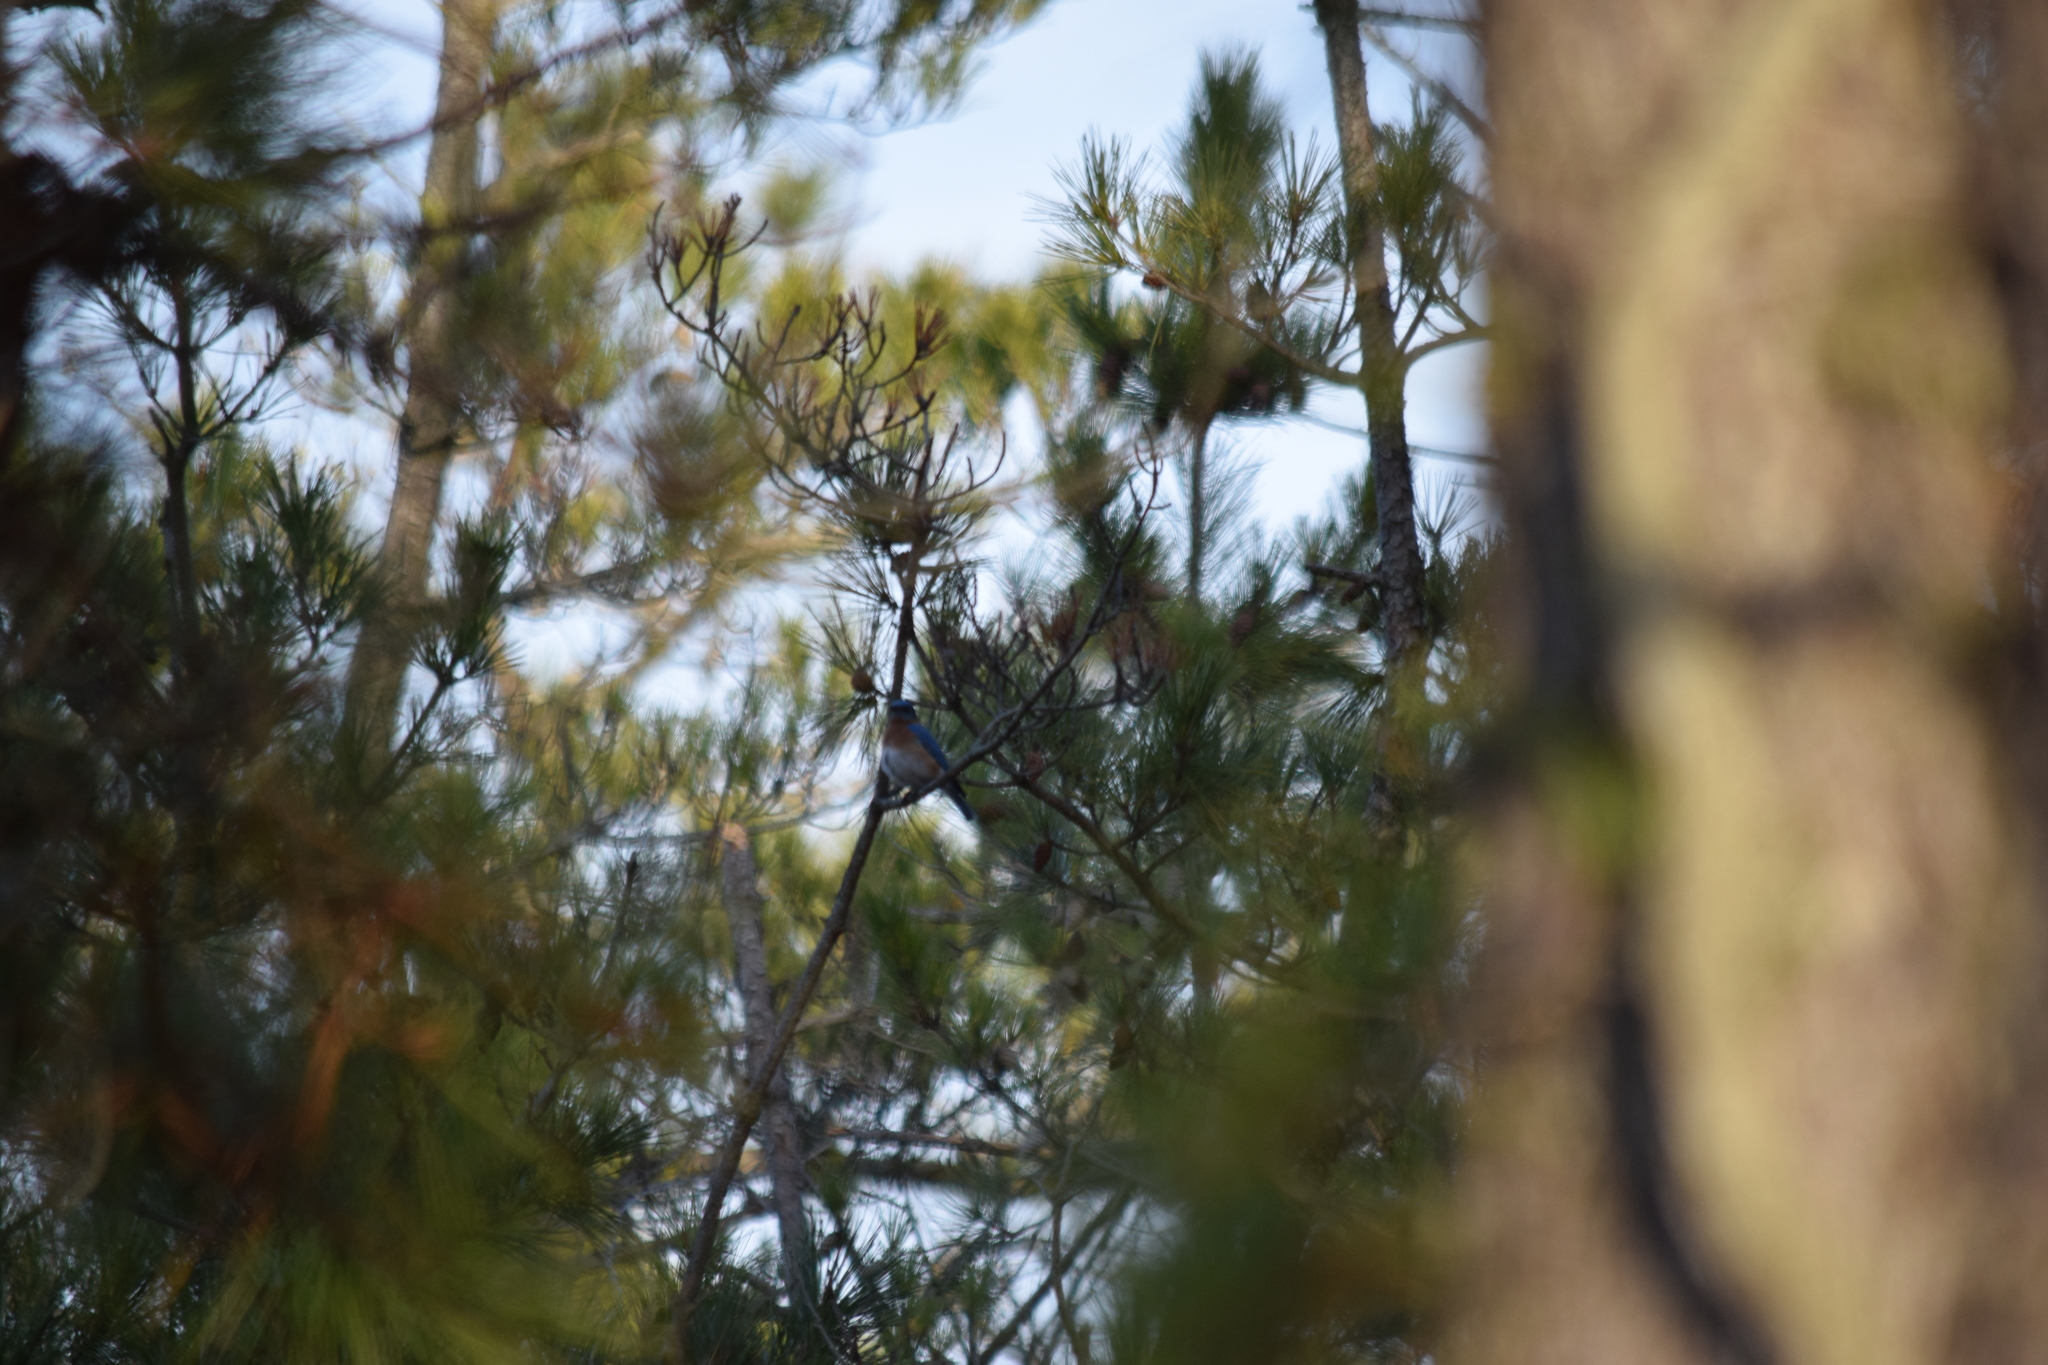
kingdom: Animalia
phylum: Chordata
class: Aves
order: Passeriformes
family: Turdidae
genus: Sialia
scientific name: Sialia sialis
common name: Eastern bluebird
